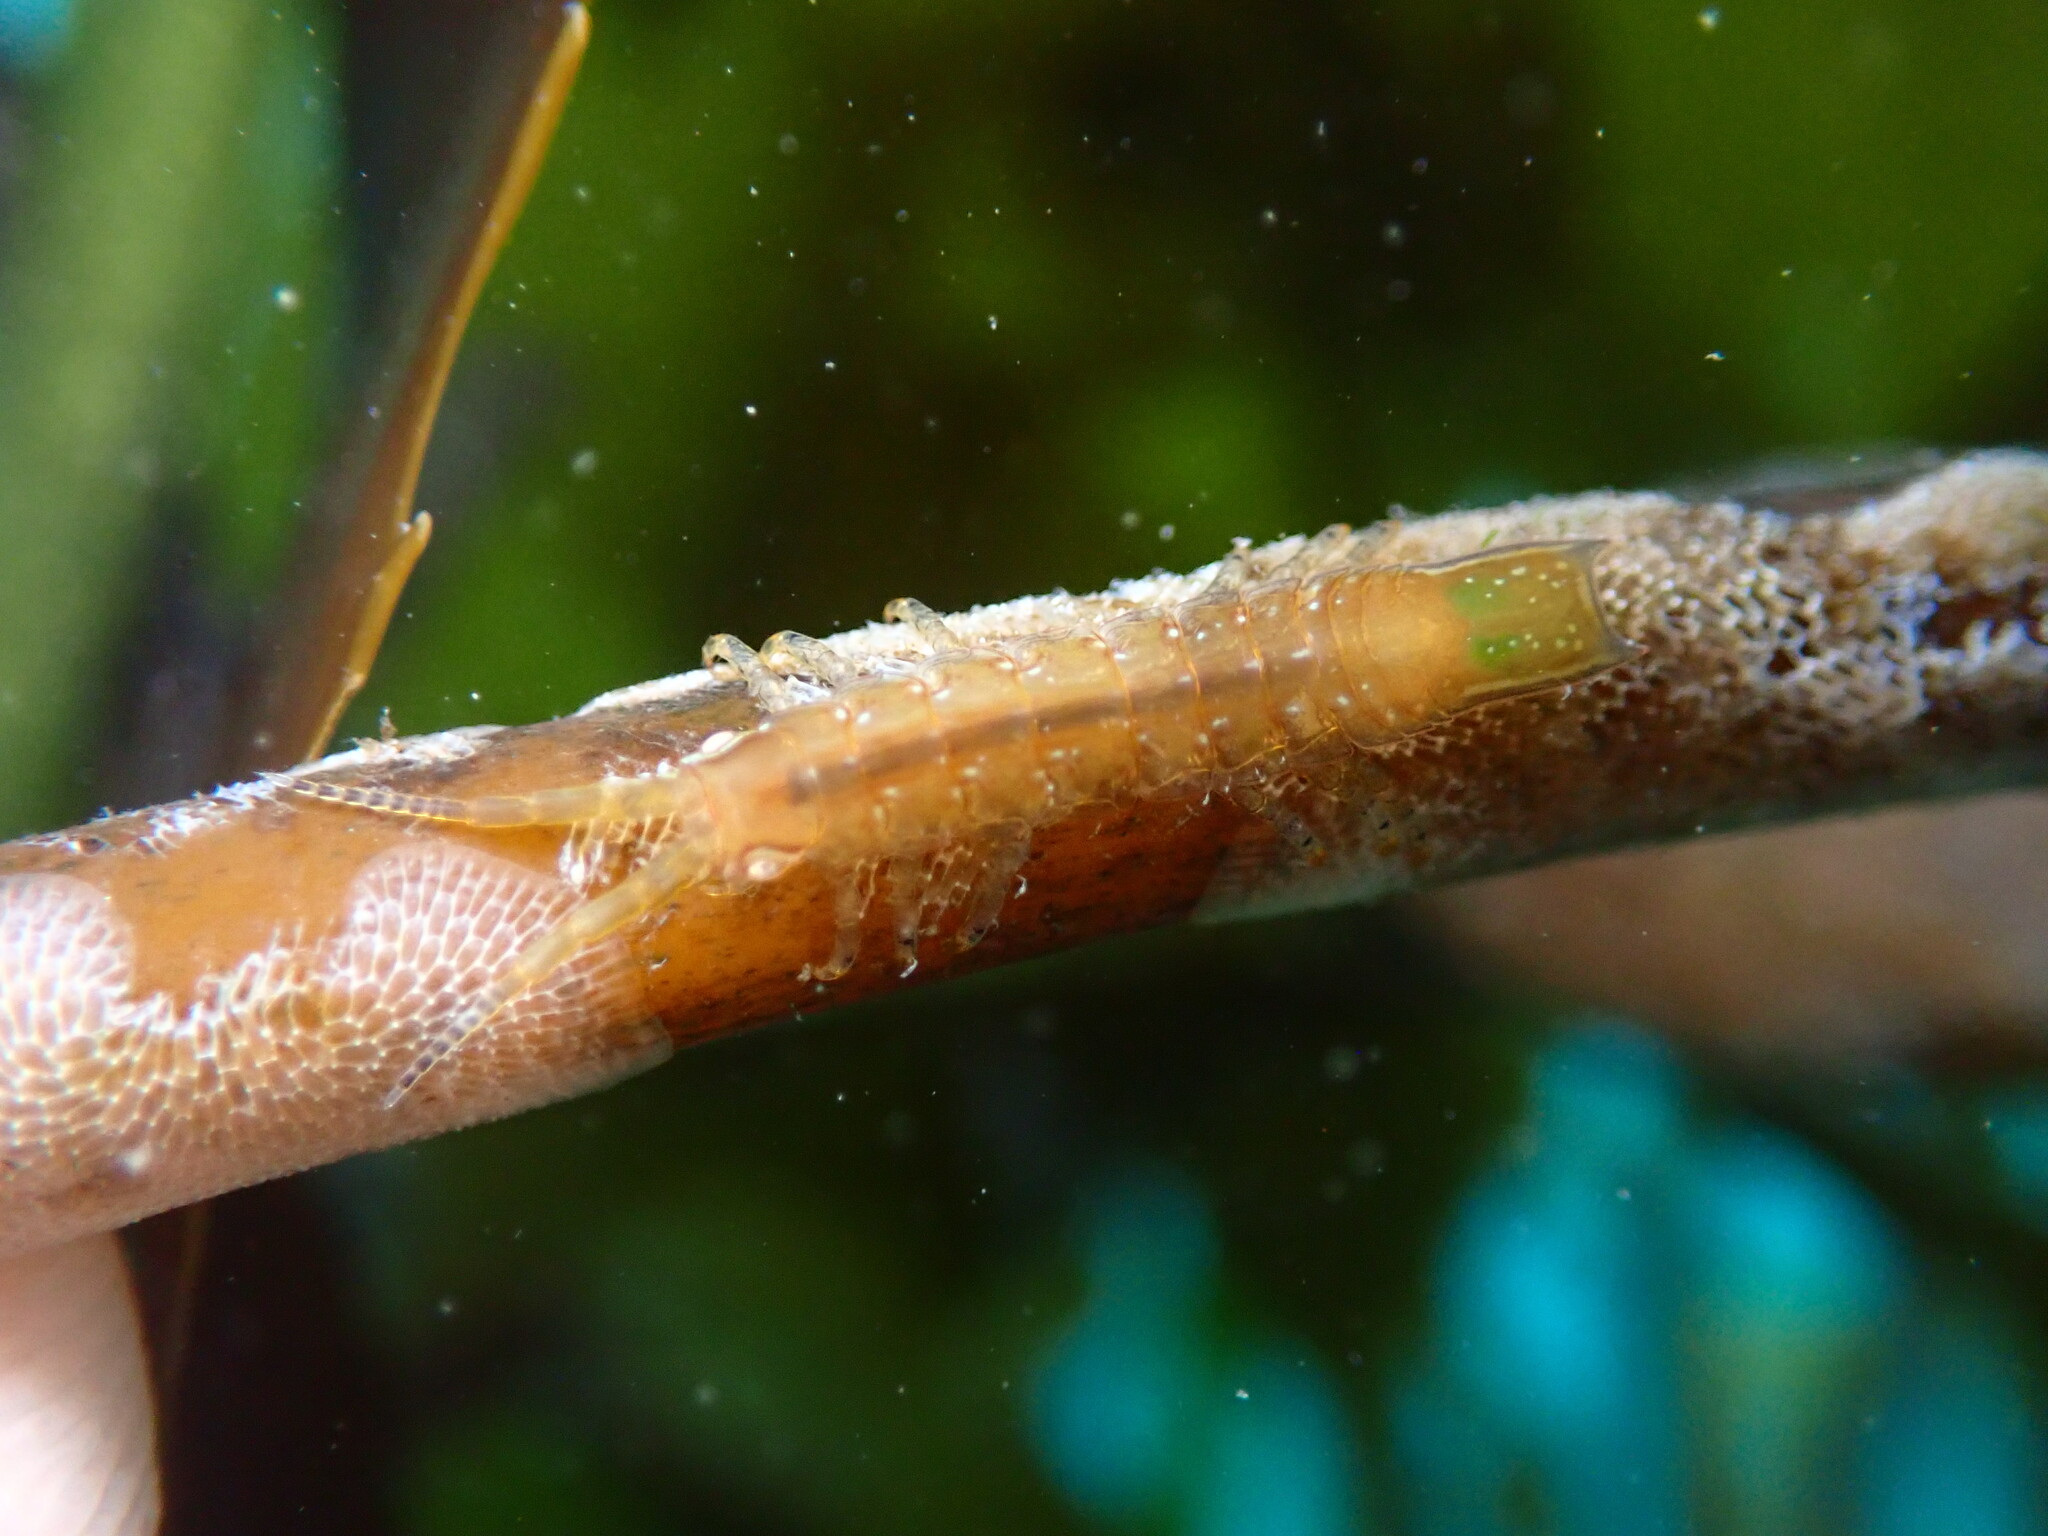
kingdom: Animalia
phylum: Arthropoda
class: Malacostraca
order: Isopoda
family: Idoteidae
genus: Pentidotea
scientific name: Pentidotea resecata
